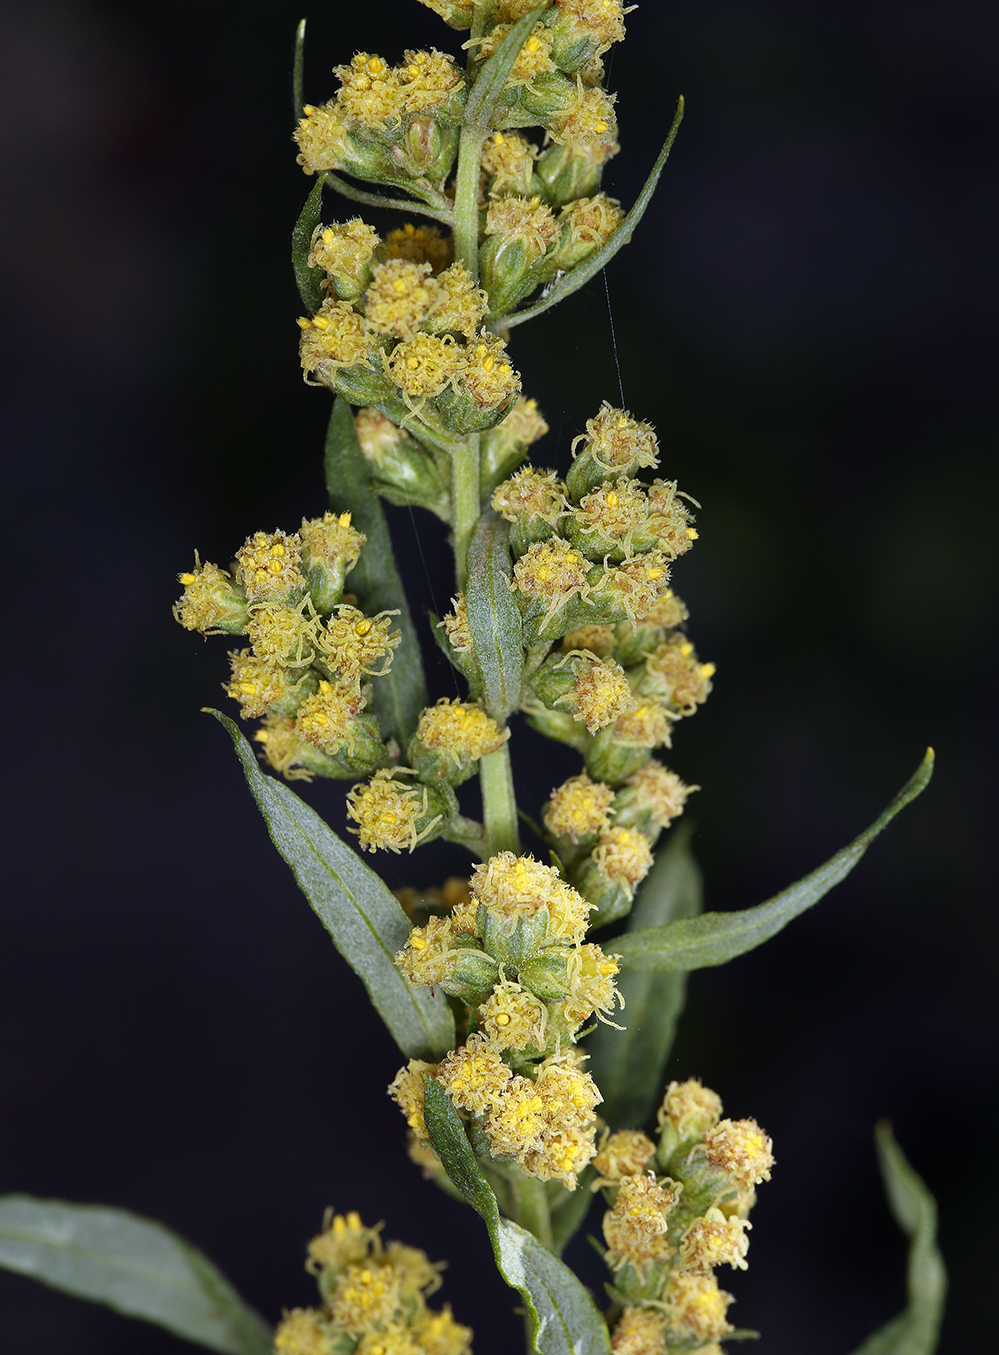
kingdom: Plantae
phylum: Tracheophyta
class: Magnoliopsida
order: Asterales
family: Asteraceae
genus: Artemisia
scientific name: Artemisia douglasiana
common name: Northwest mugwort
